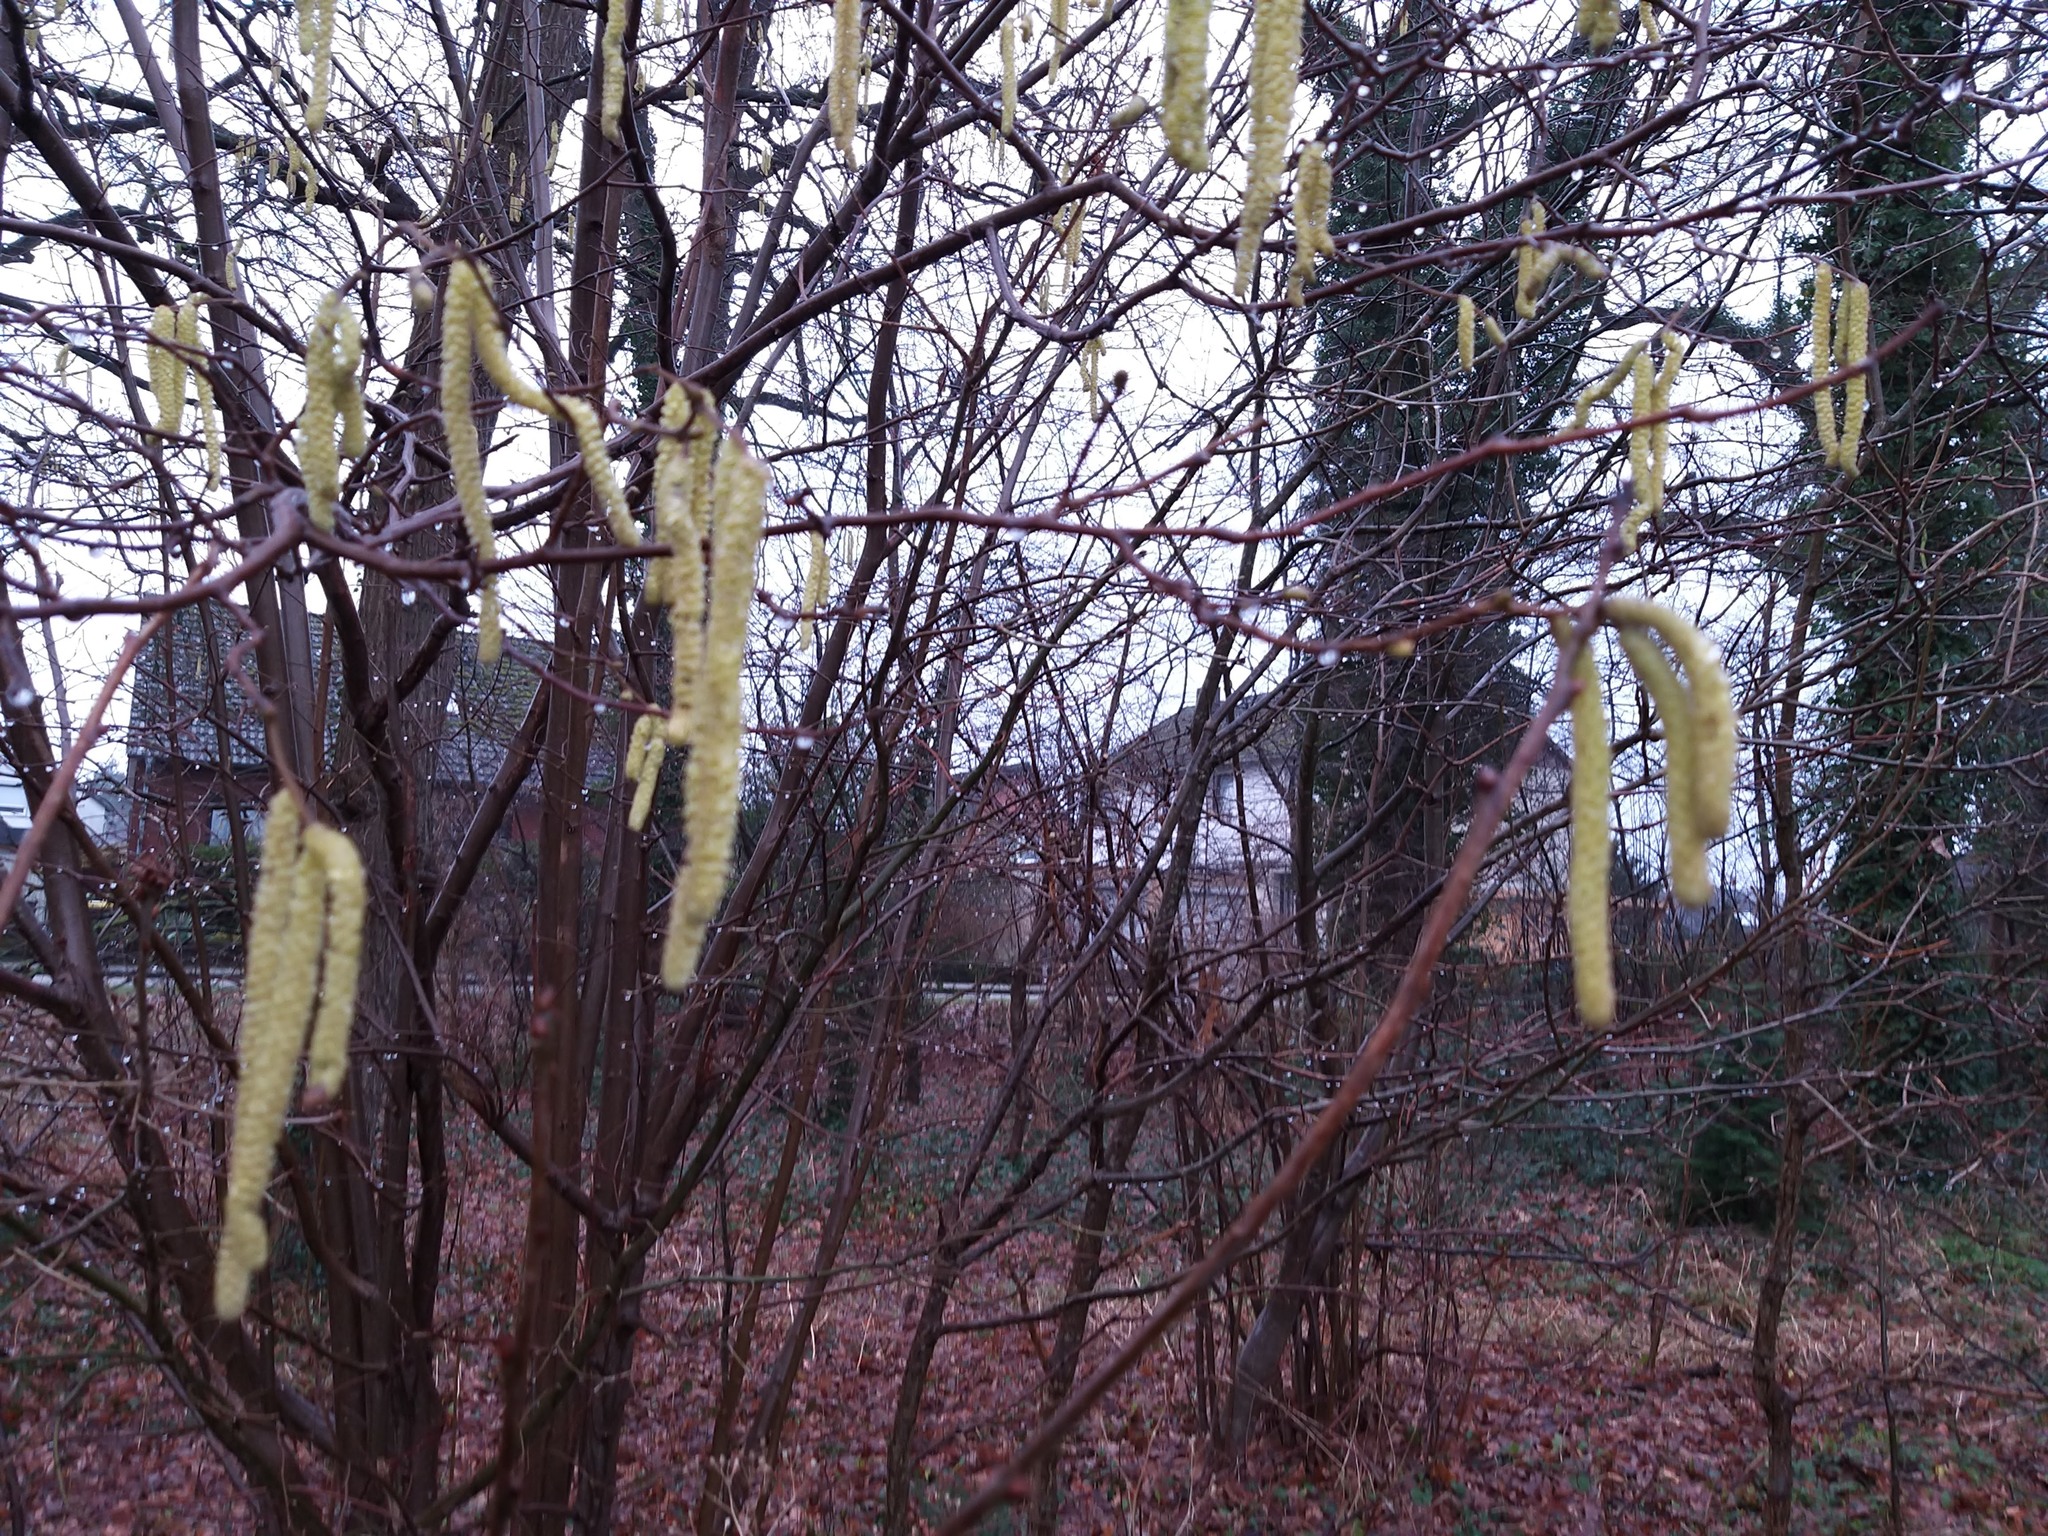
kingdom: Plantae
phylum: Tracheophyta
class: Magnoliopsida
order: Fagales
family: Betulaceae
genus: Corylus
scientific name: Corylus avellana
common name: European hazel
